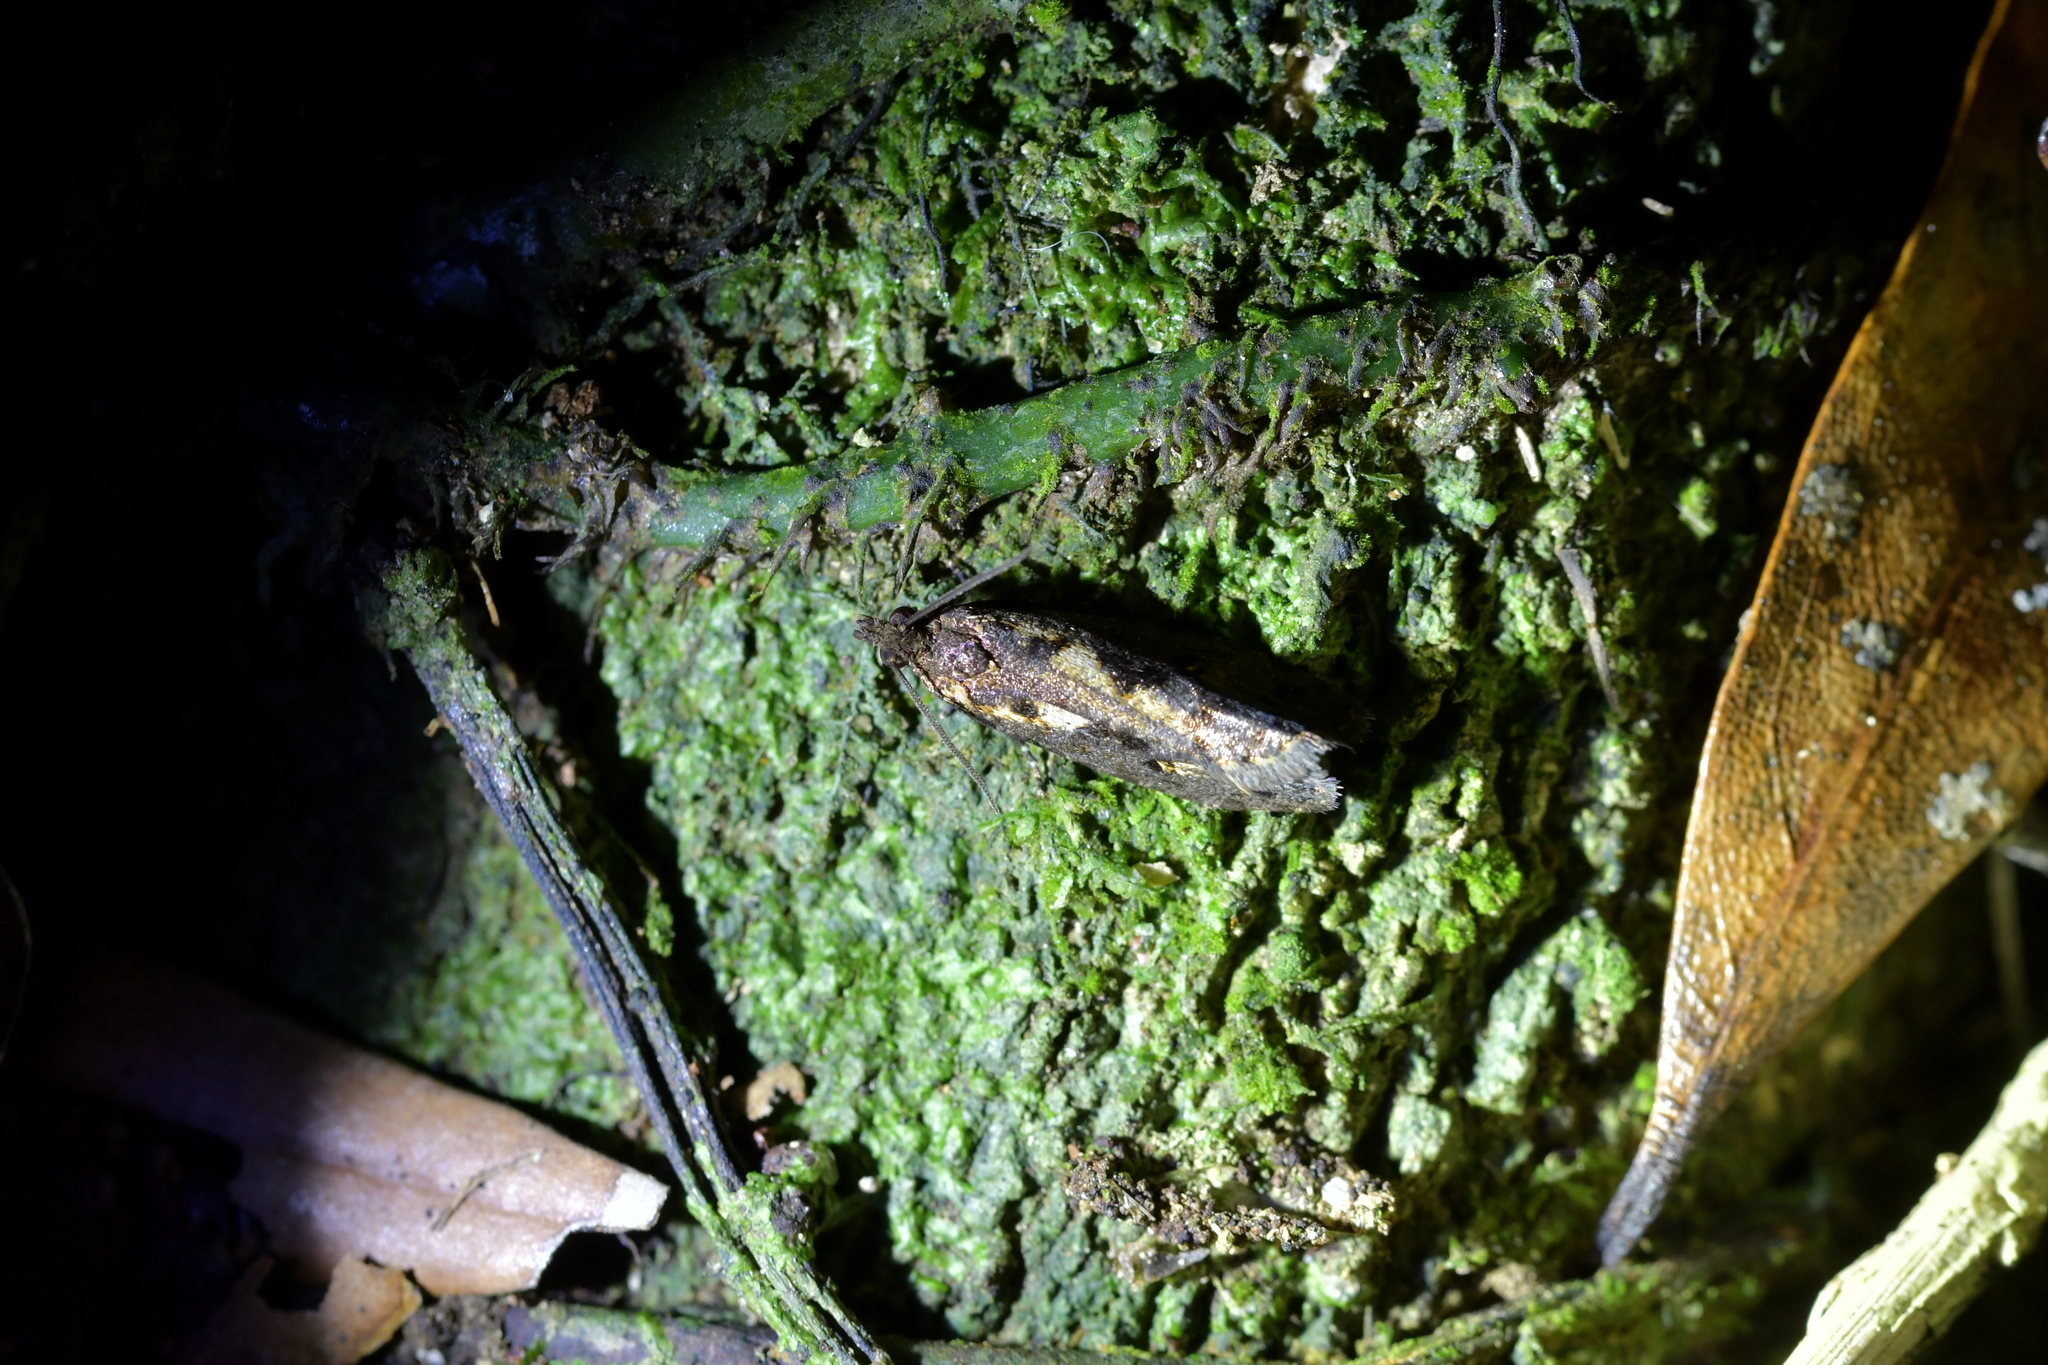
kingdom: Animalia
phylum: Arthropoda
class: Insecta
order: Lepidoptera
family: Tortricidae
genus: Cryptaspasma
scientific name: Cryptaspasma querula
